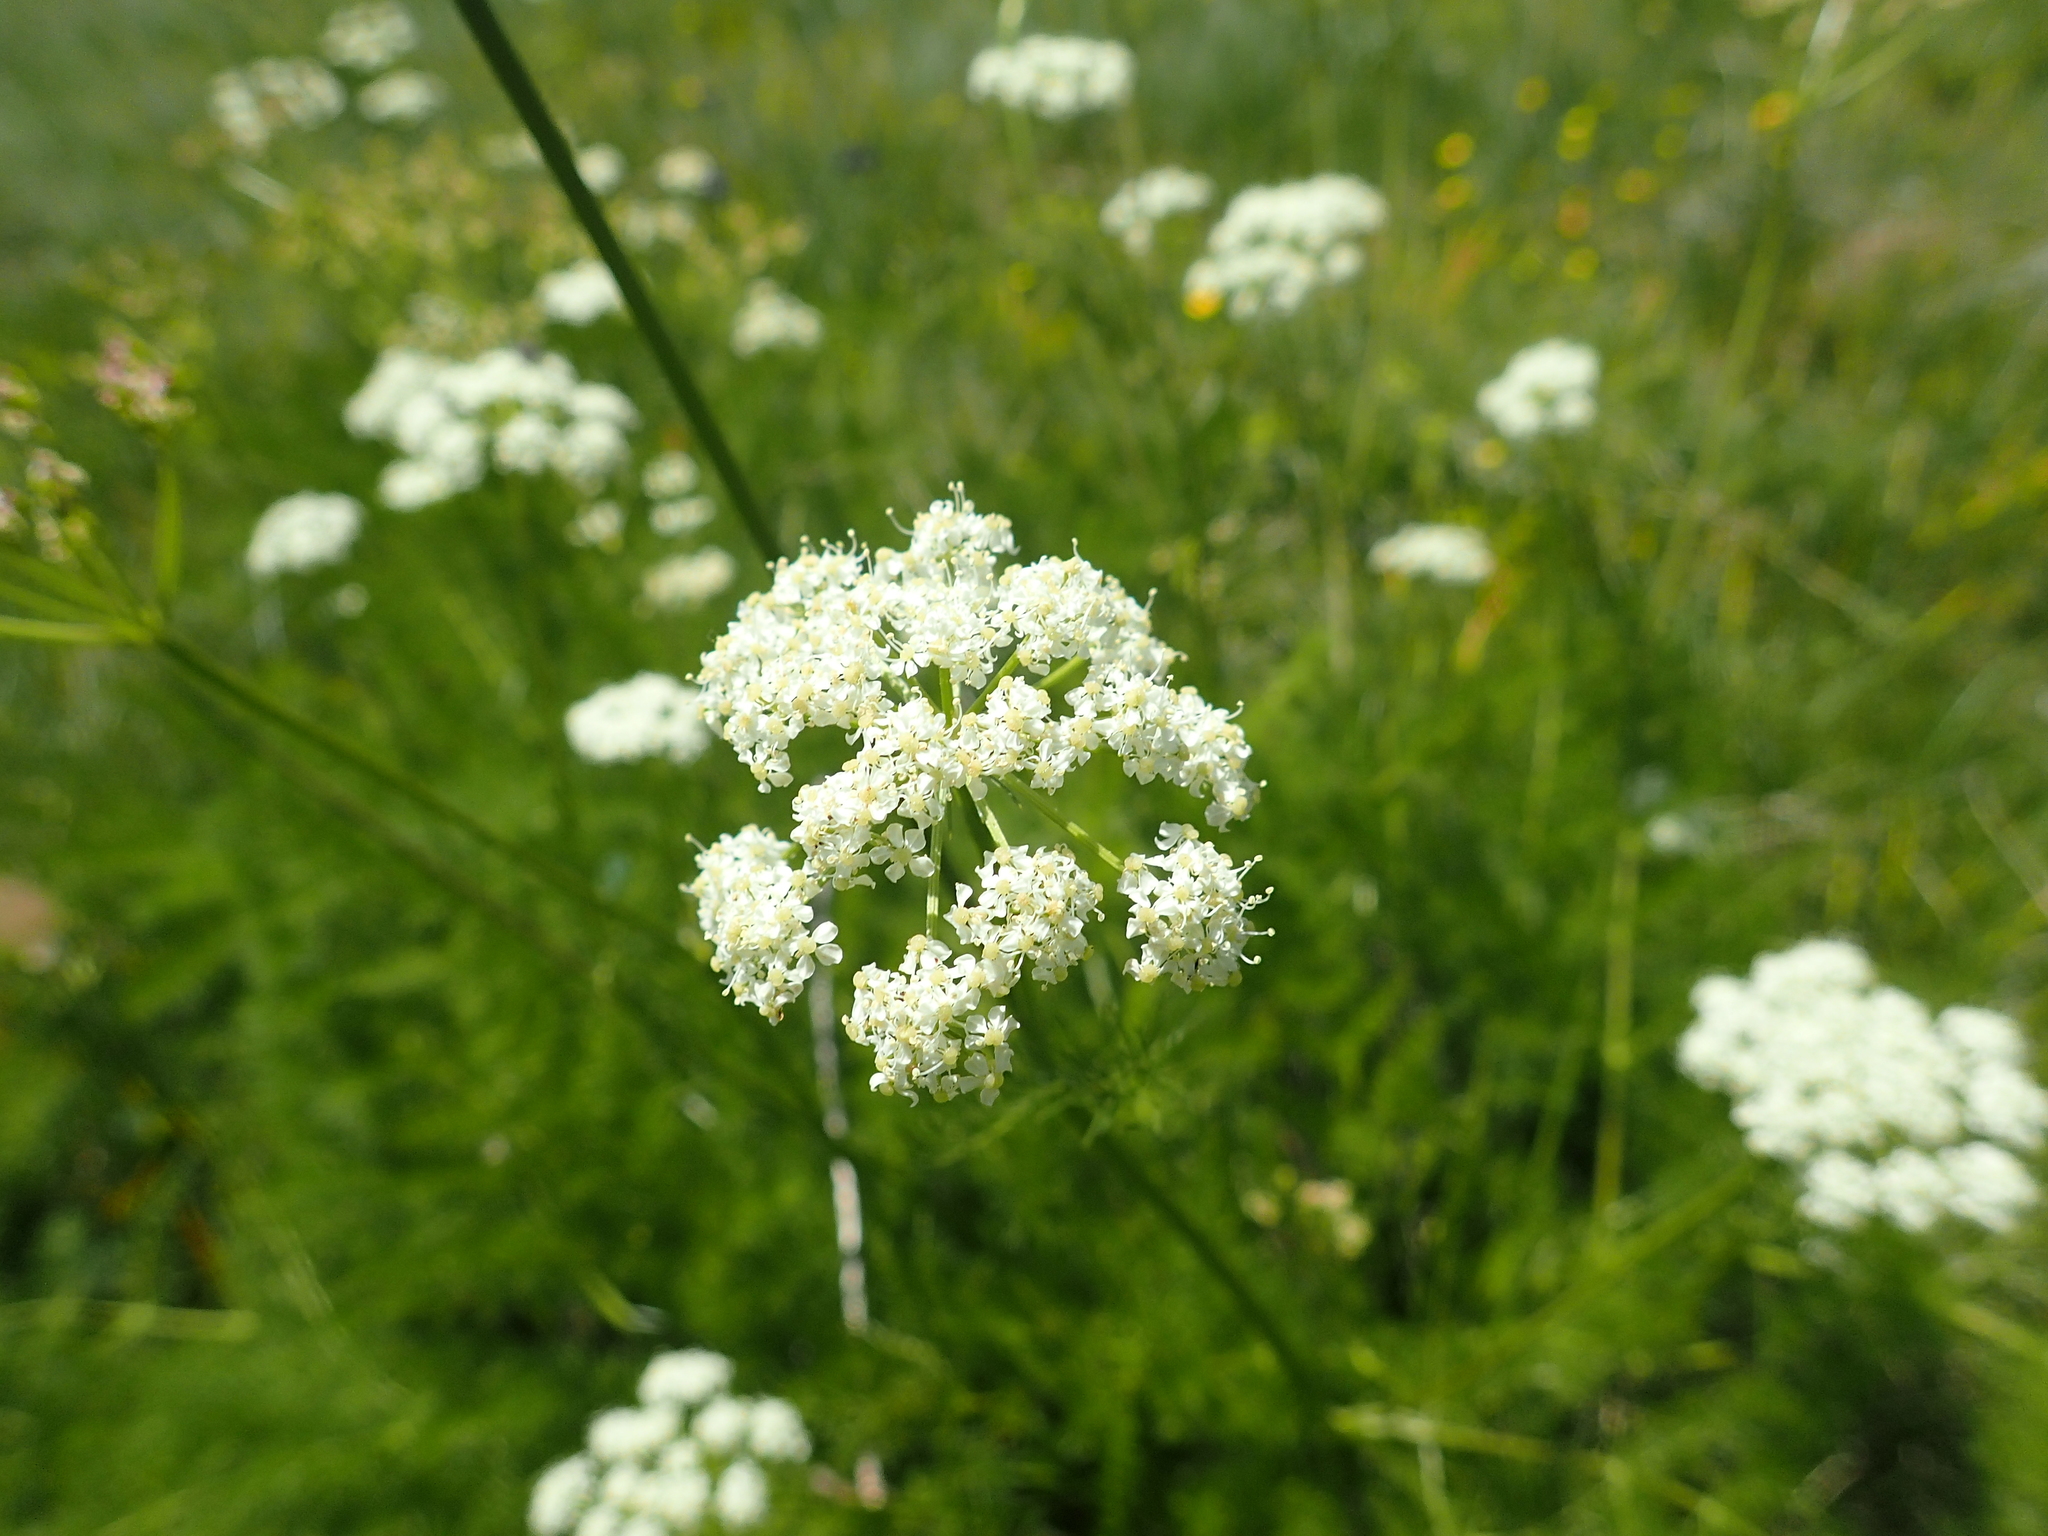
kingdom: Plantae
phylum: Tracheophyta
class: Magnoliopsida
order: Apiales
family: Apiaceae
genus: Meum
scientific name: Meum athamanticum
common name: Spignel
